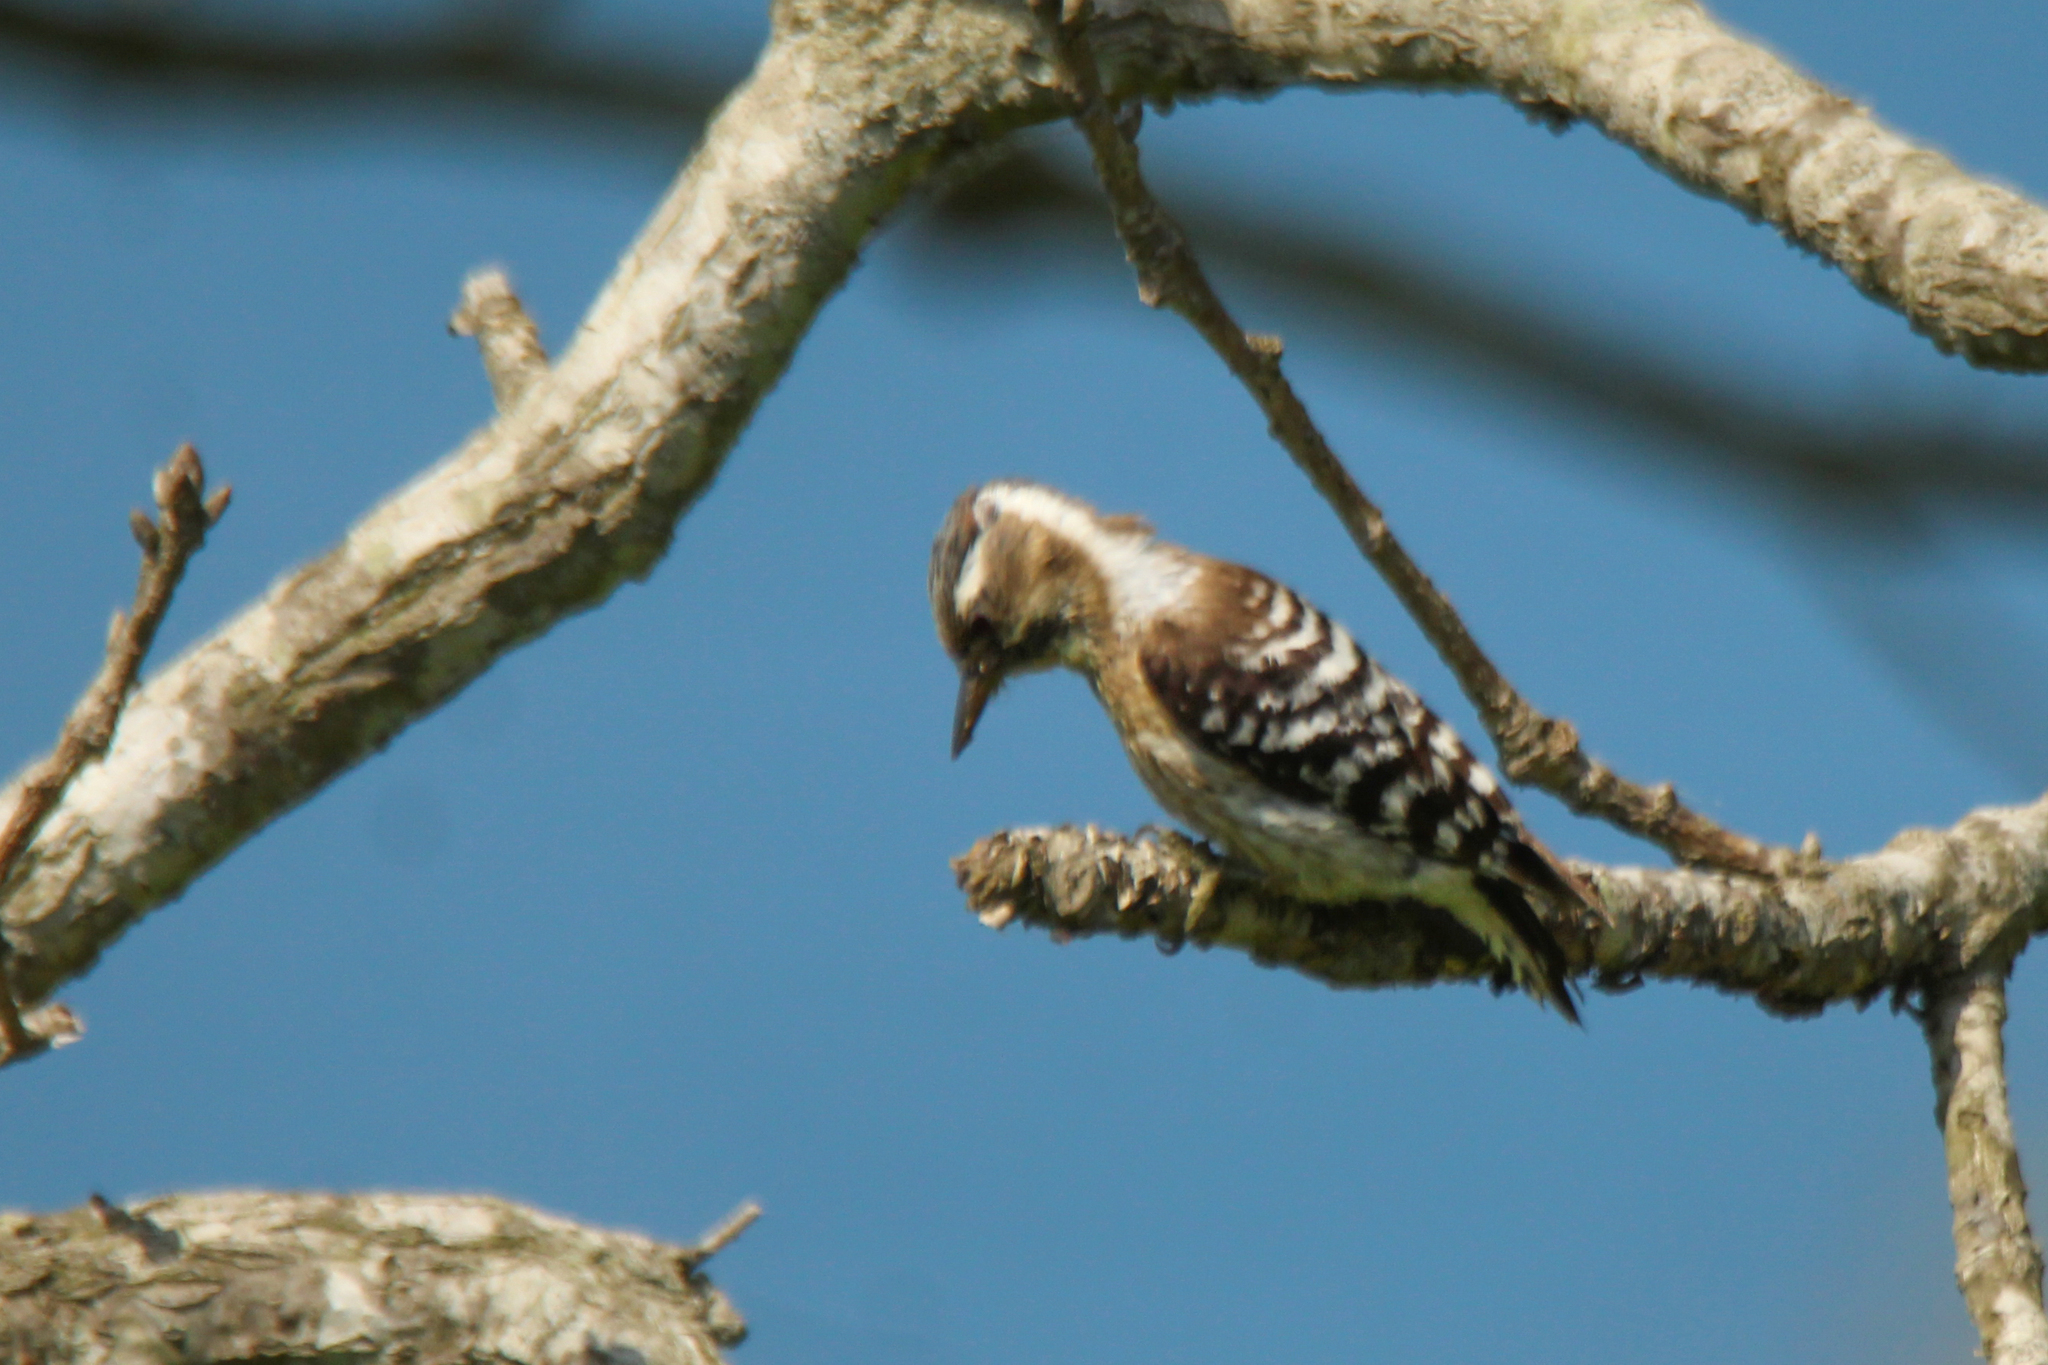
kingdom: Animalia
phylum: Chordata
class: Aves
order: Piciformes
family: Picidae
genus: Yungipicus
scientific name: Yungipicus kizuki
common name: Japanese pygmy woodpecker
